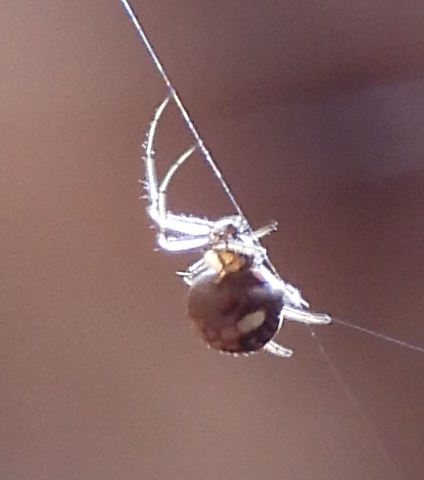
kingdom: Animalia
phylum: Arthropoda
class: Arachnida
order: Araneae
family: Tetragnathidae
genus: Leucauge
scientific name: Leucauge venusta
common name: Longjawed orb weavers
